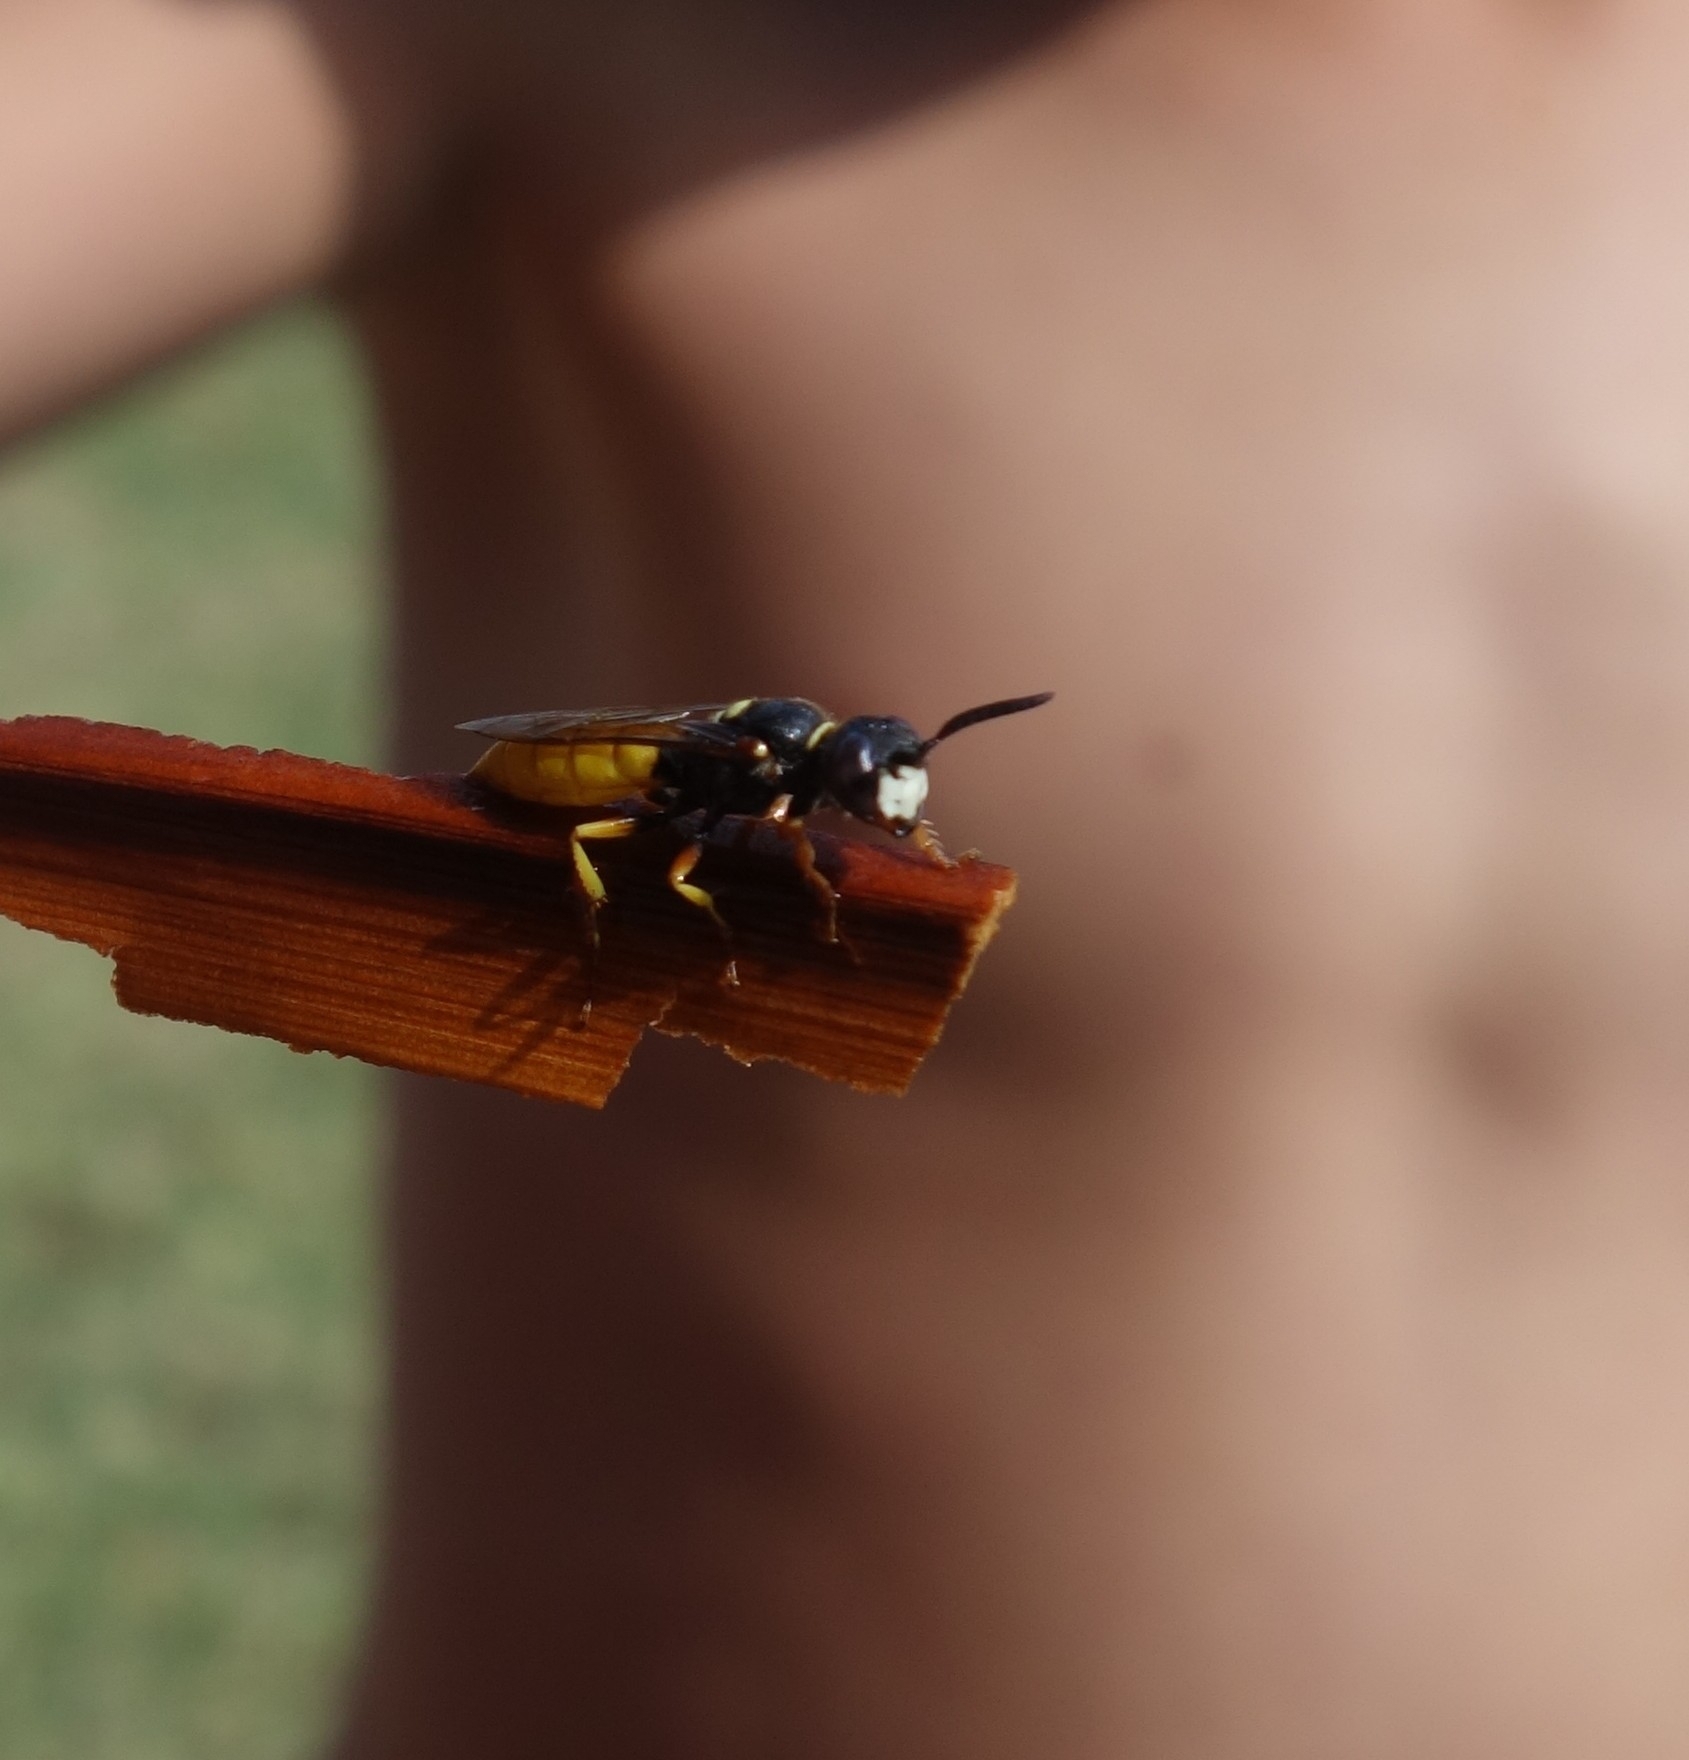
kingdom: Animalia
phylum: Arthropoda
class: Insecta
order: Hymenoptera
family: Crabronidae
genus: Philanthus
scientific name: Philanthus triangulum
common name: Bee wolf
